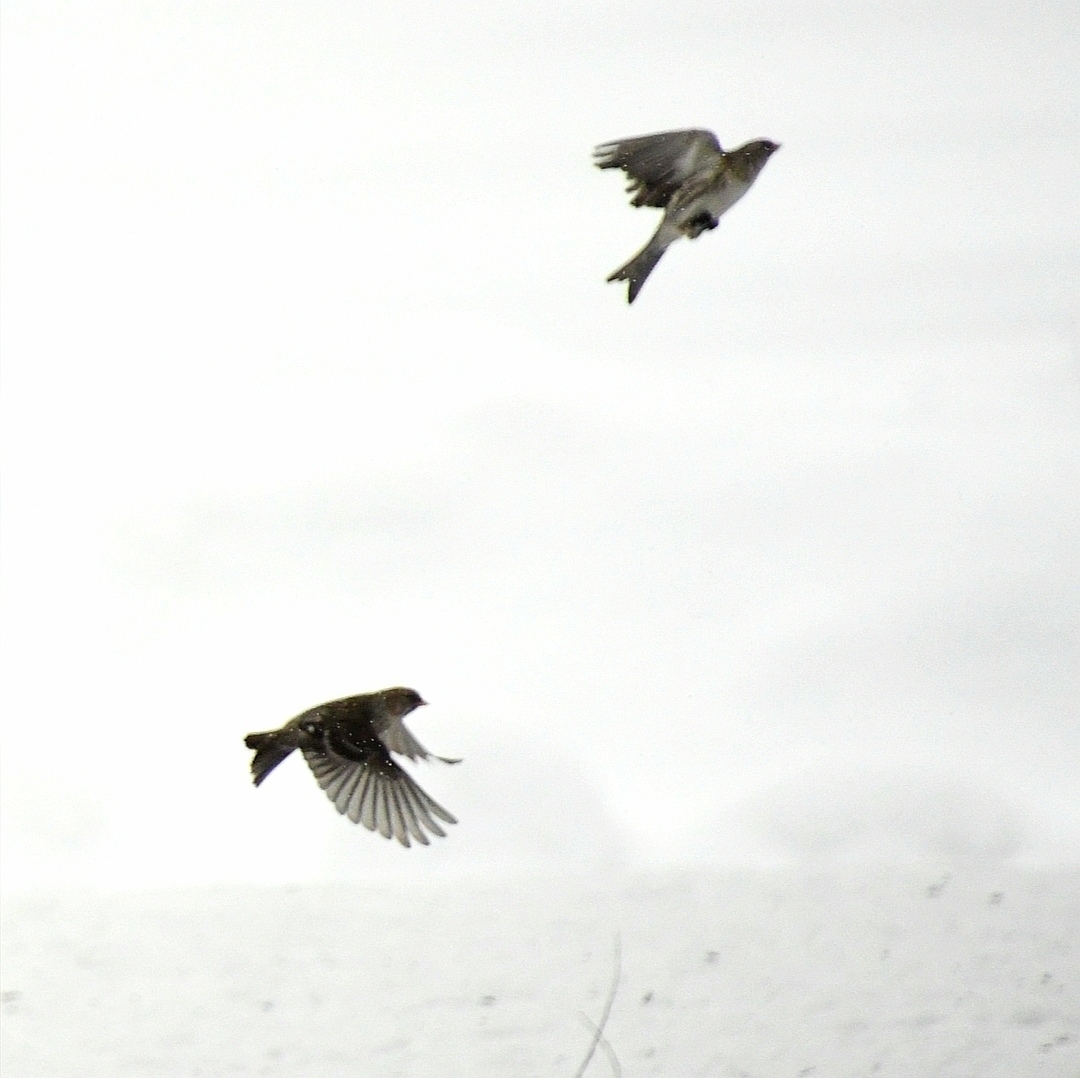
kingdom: Animalia
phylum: Chordata
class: Aves
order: Passeriformes
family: Fringillidae
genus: Acanthis
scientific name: Acanthis flammea
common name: Common redpoll
